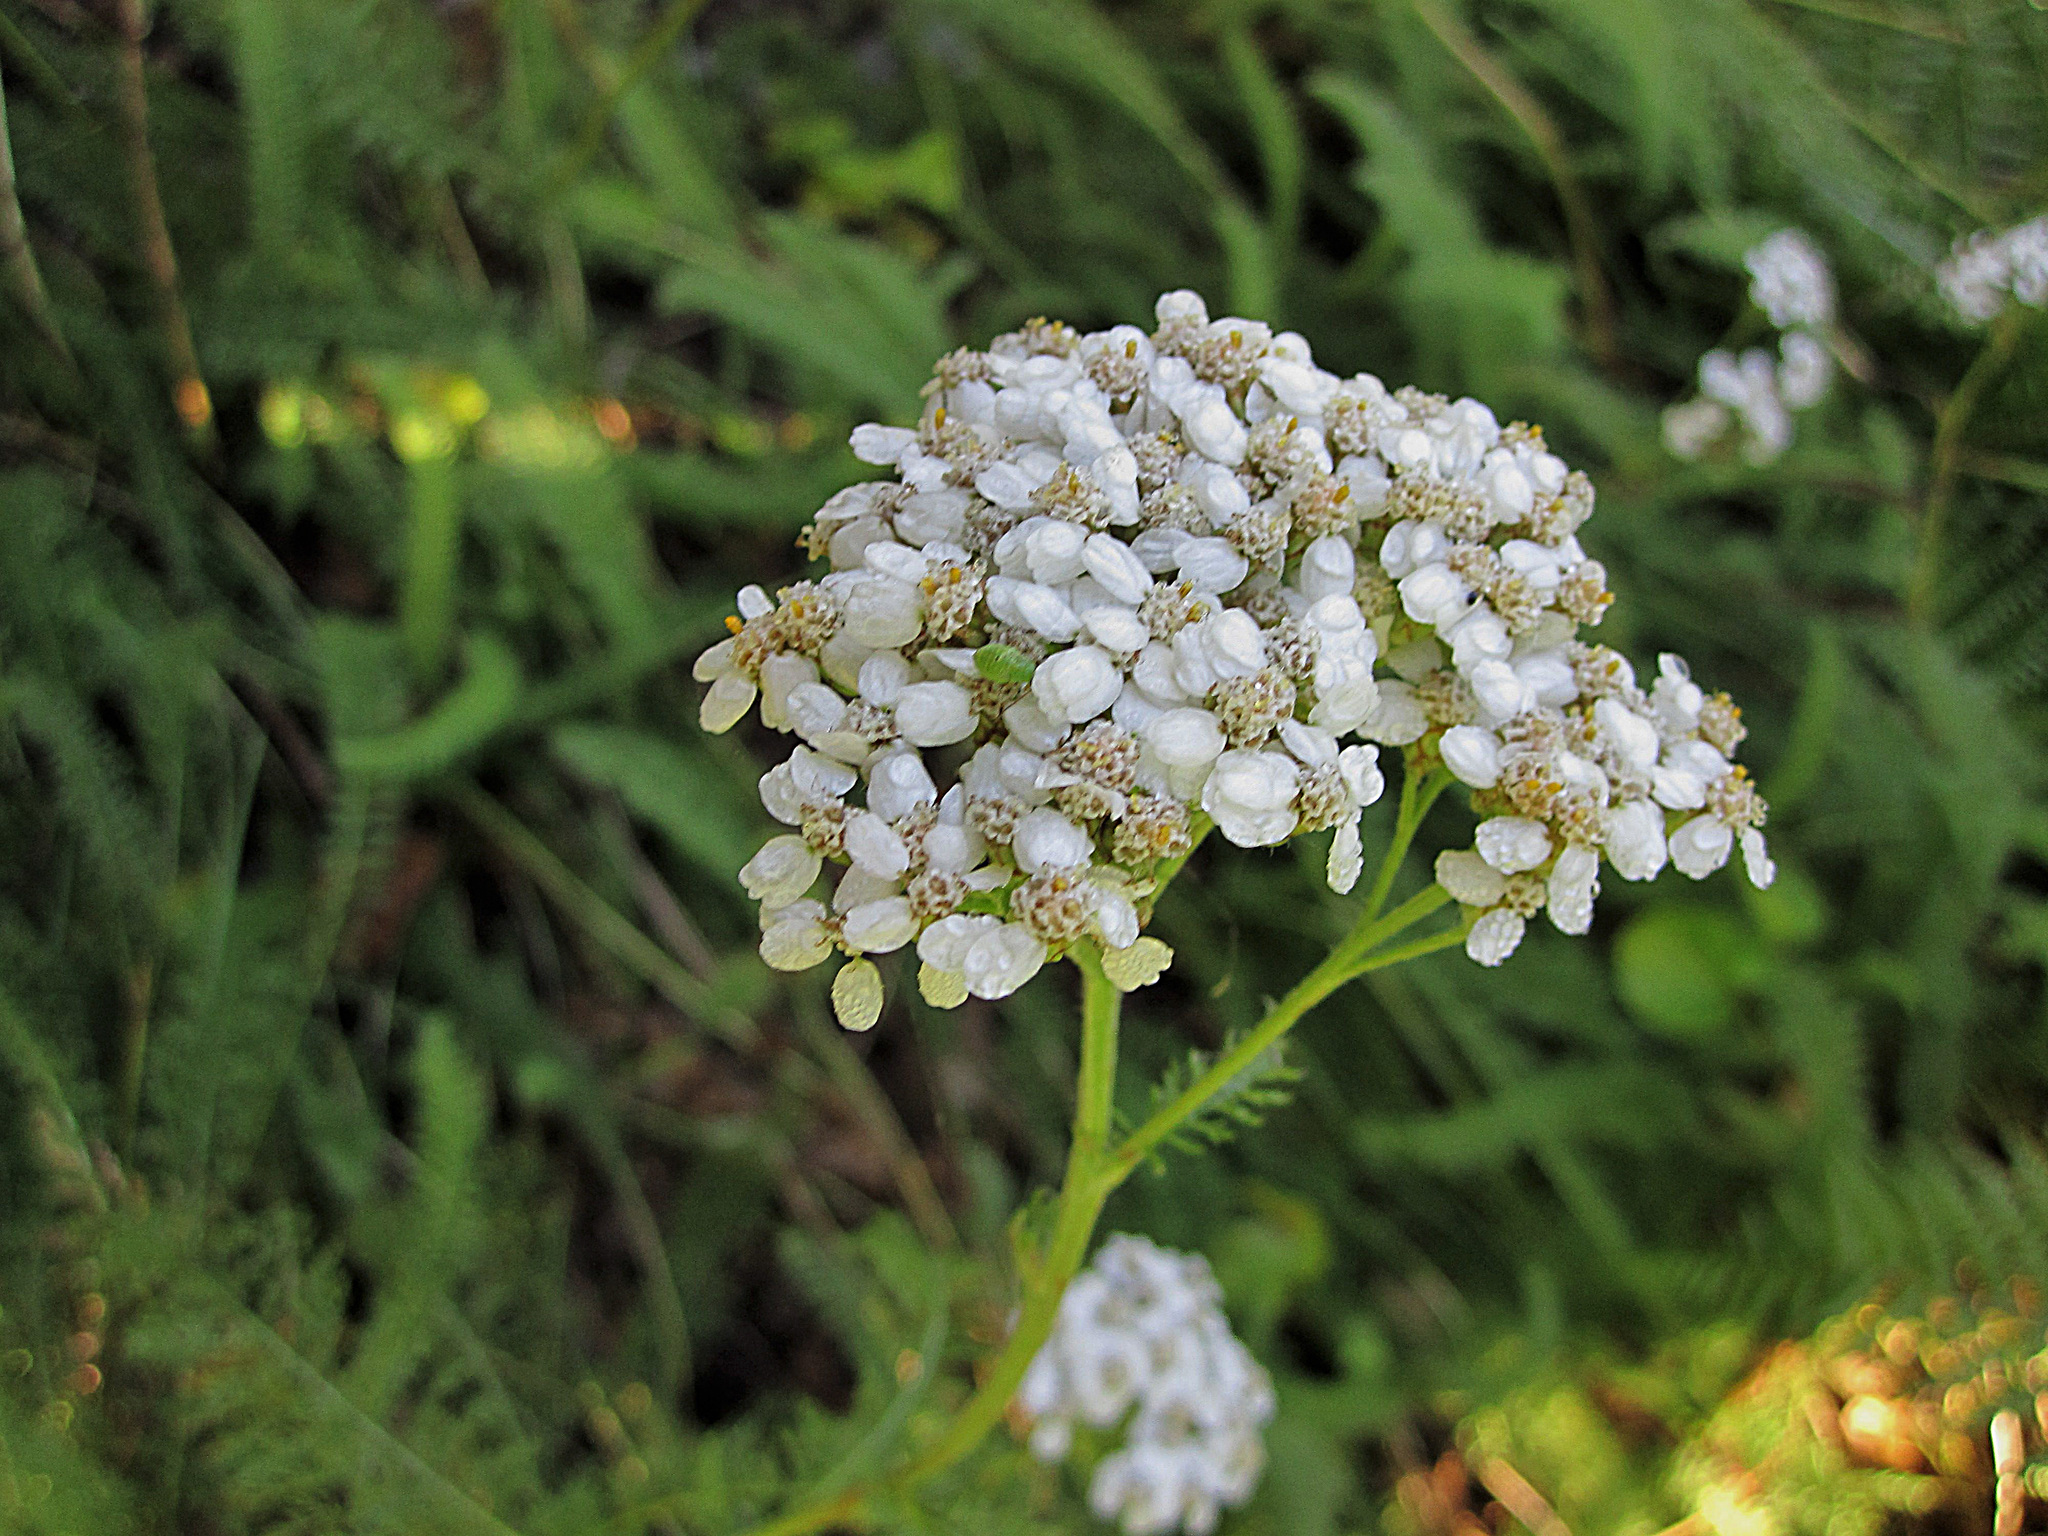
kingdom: Plantae
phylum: Tracheophyta
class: Magnoliopsida
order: Asterales
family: Asteraceae
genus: Achillea
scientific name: Achillea millefolium
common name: Yarrow
